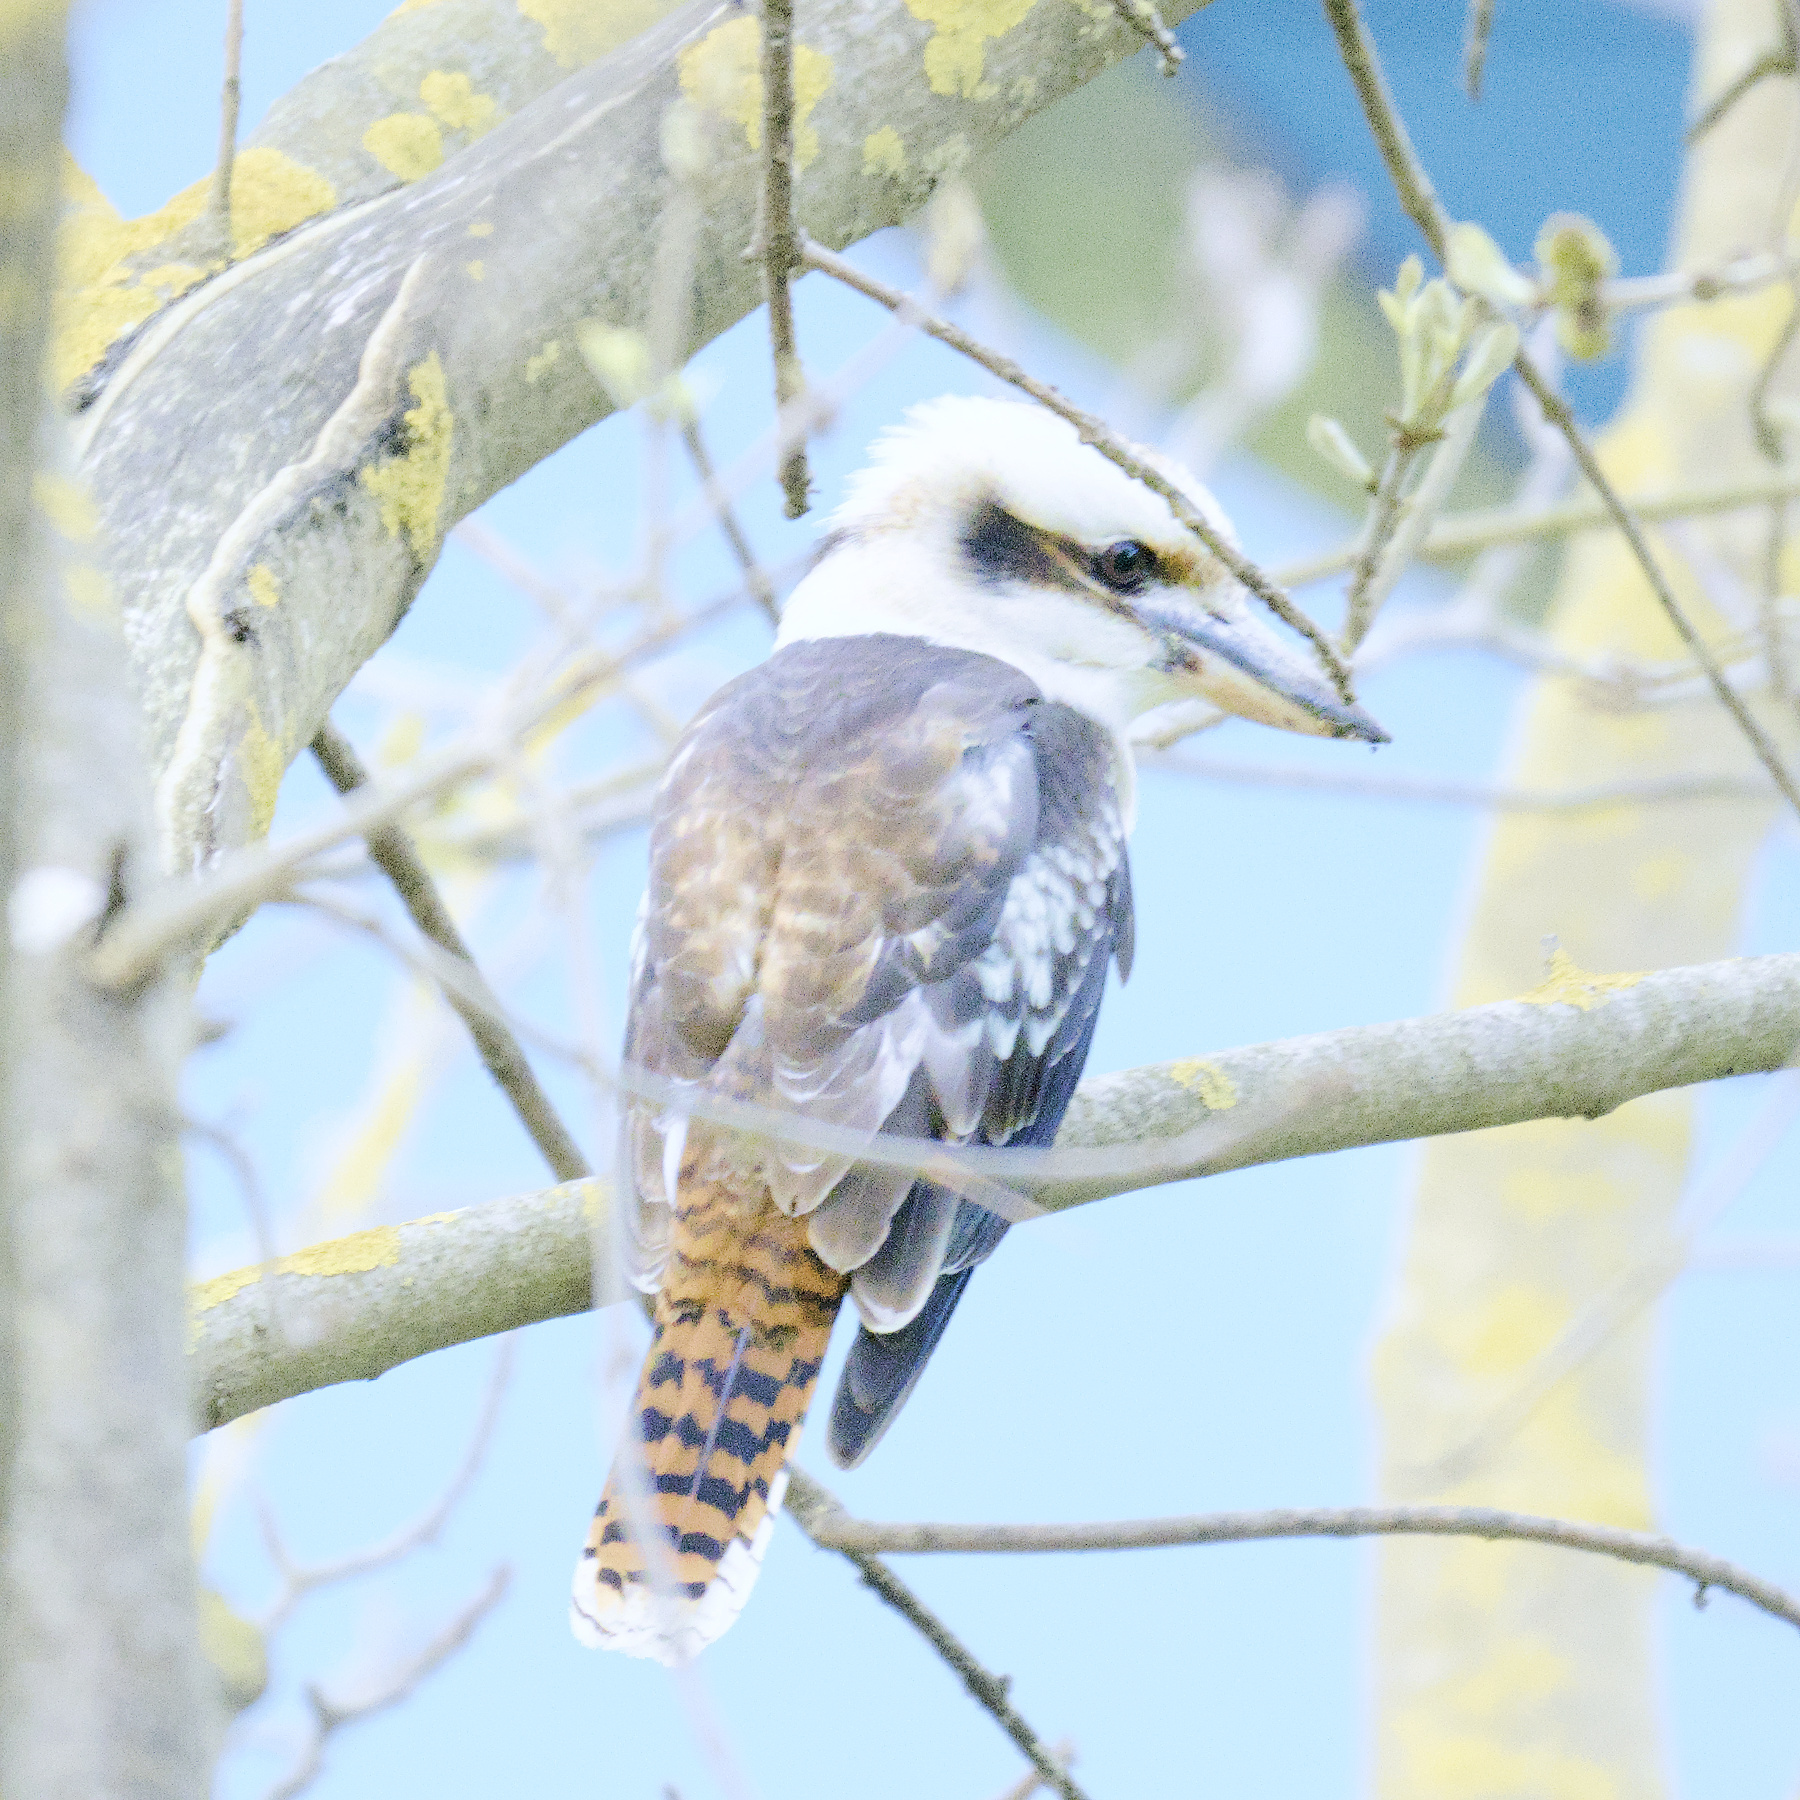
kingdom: Animalia
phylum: Chordata
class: Aves
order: Coraciiformes
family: Alcedinidae
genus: Dacelo
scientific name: Dacelo novaeguineae
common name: Laughing kookaburra
